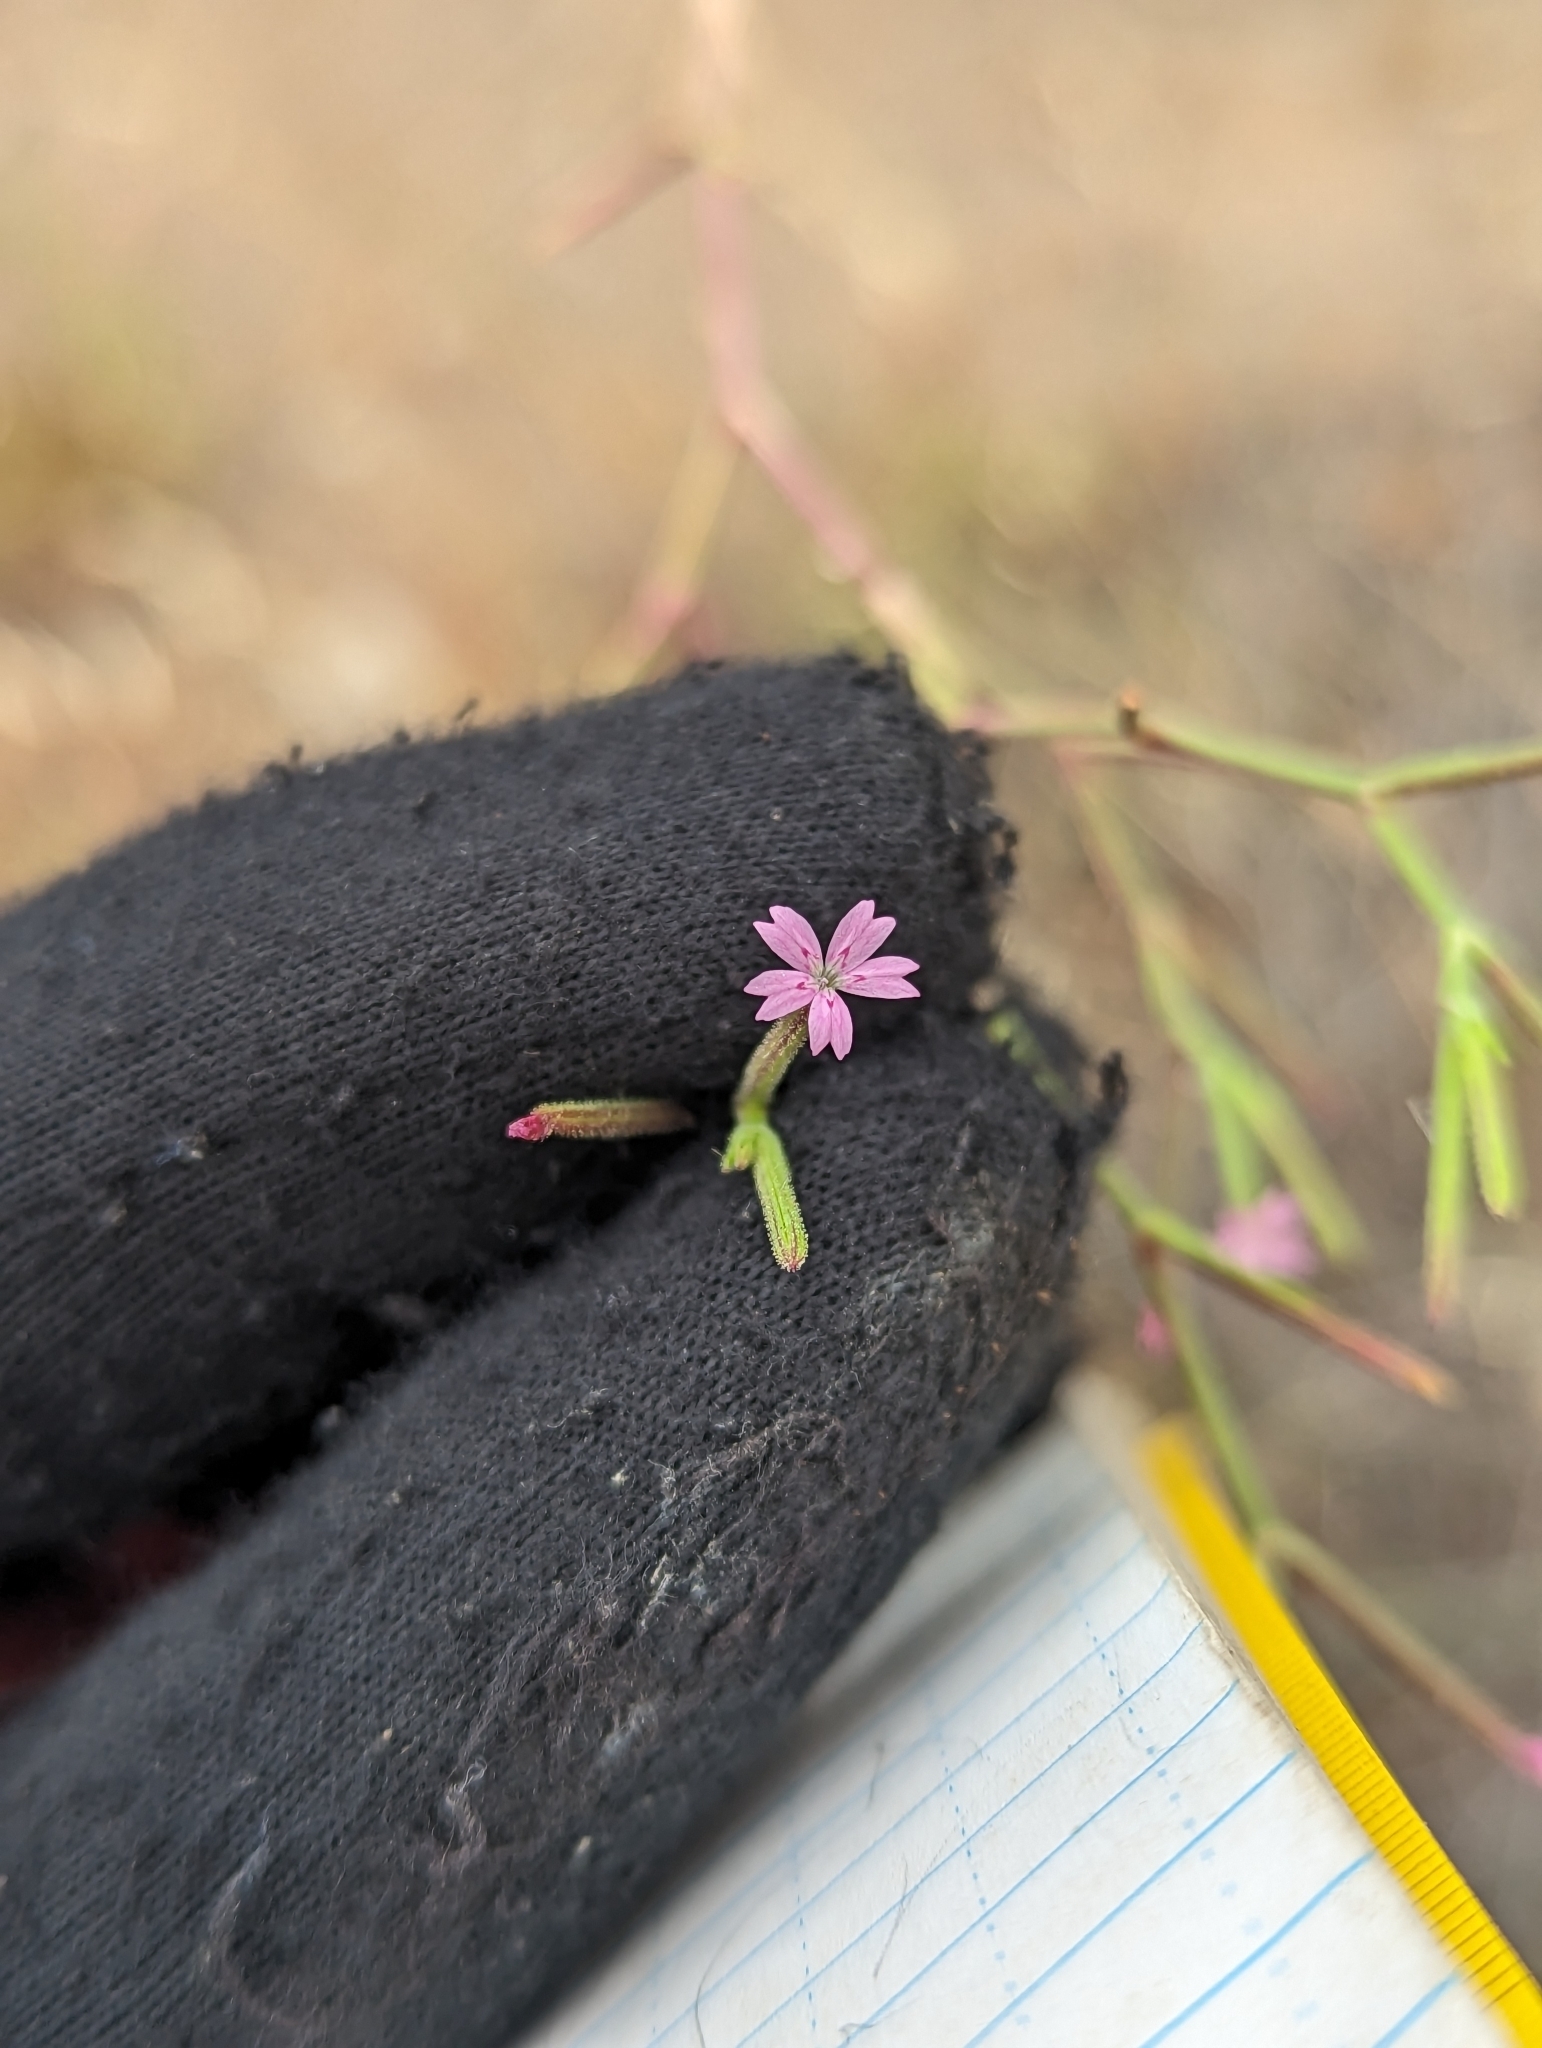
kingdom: Plantae
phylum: Tracheophyta
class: Magnoliopsida
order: Caryophyllales
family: Caryophyllaceae
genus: Dianthus
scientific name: Dianthus nudiflorus
